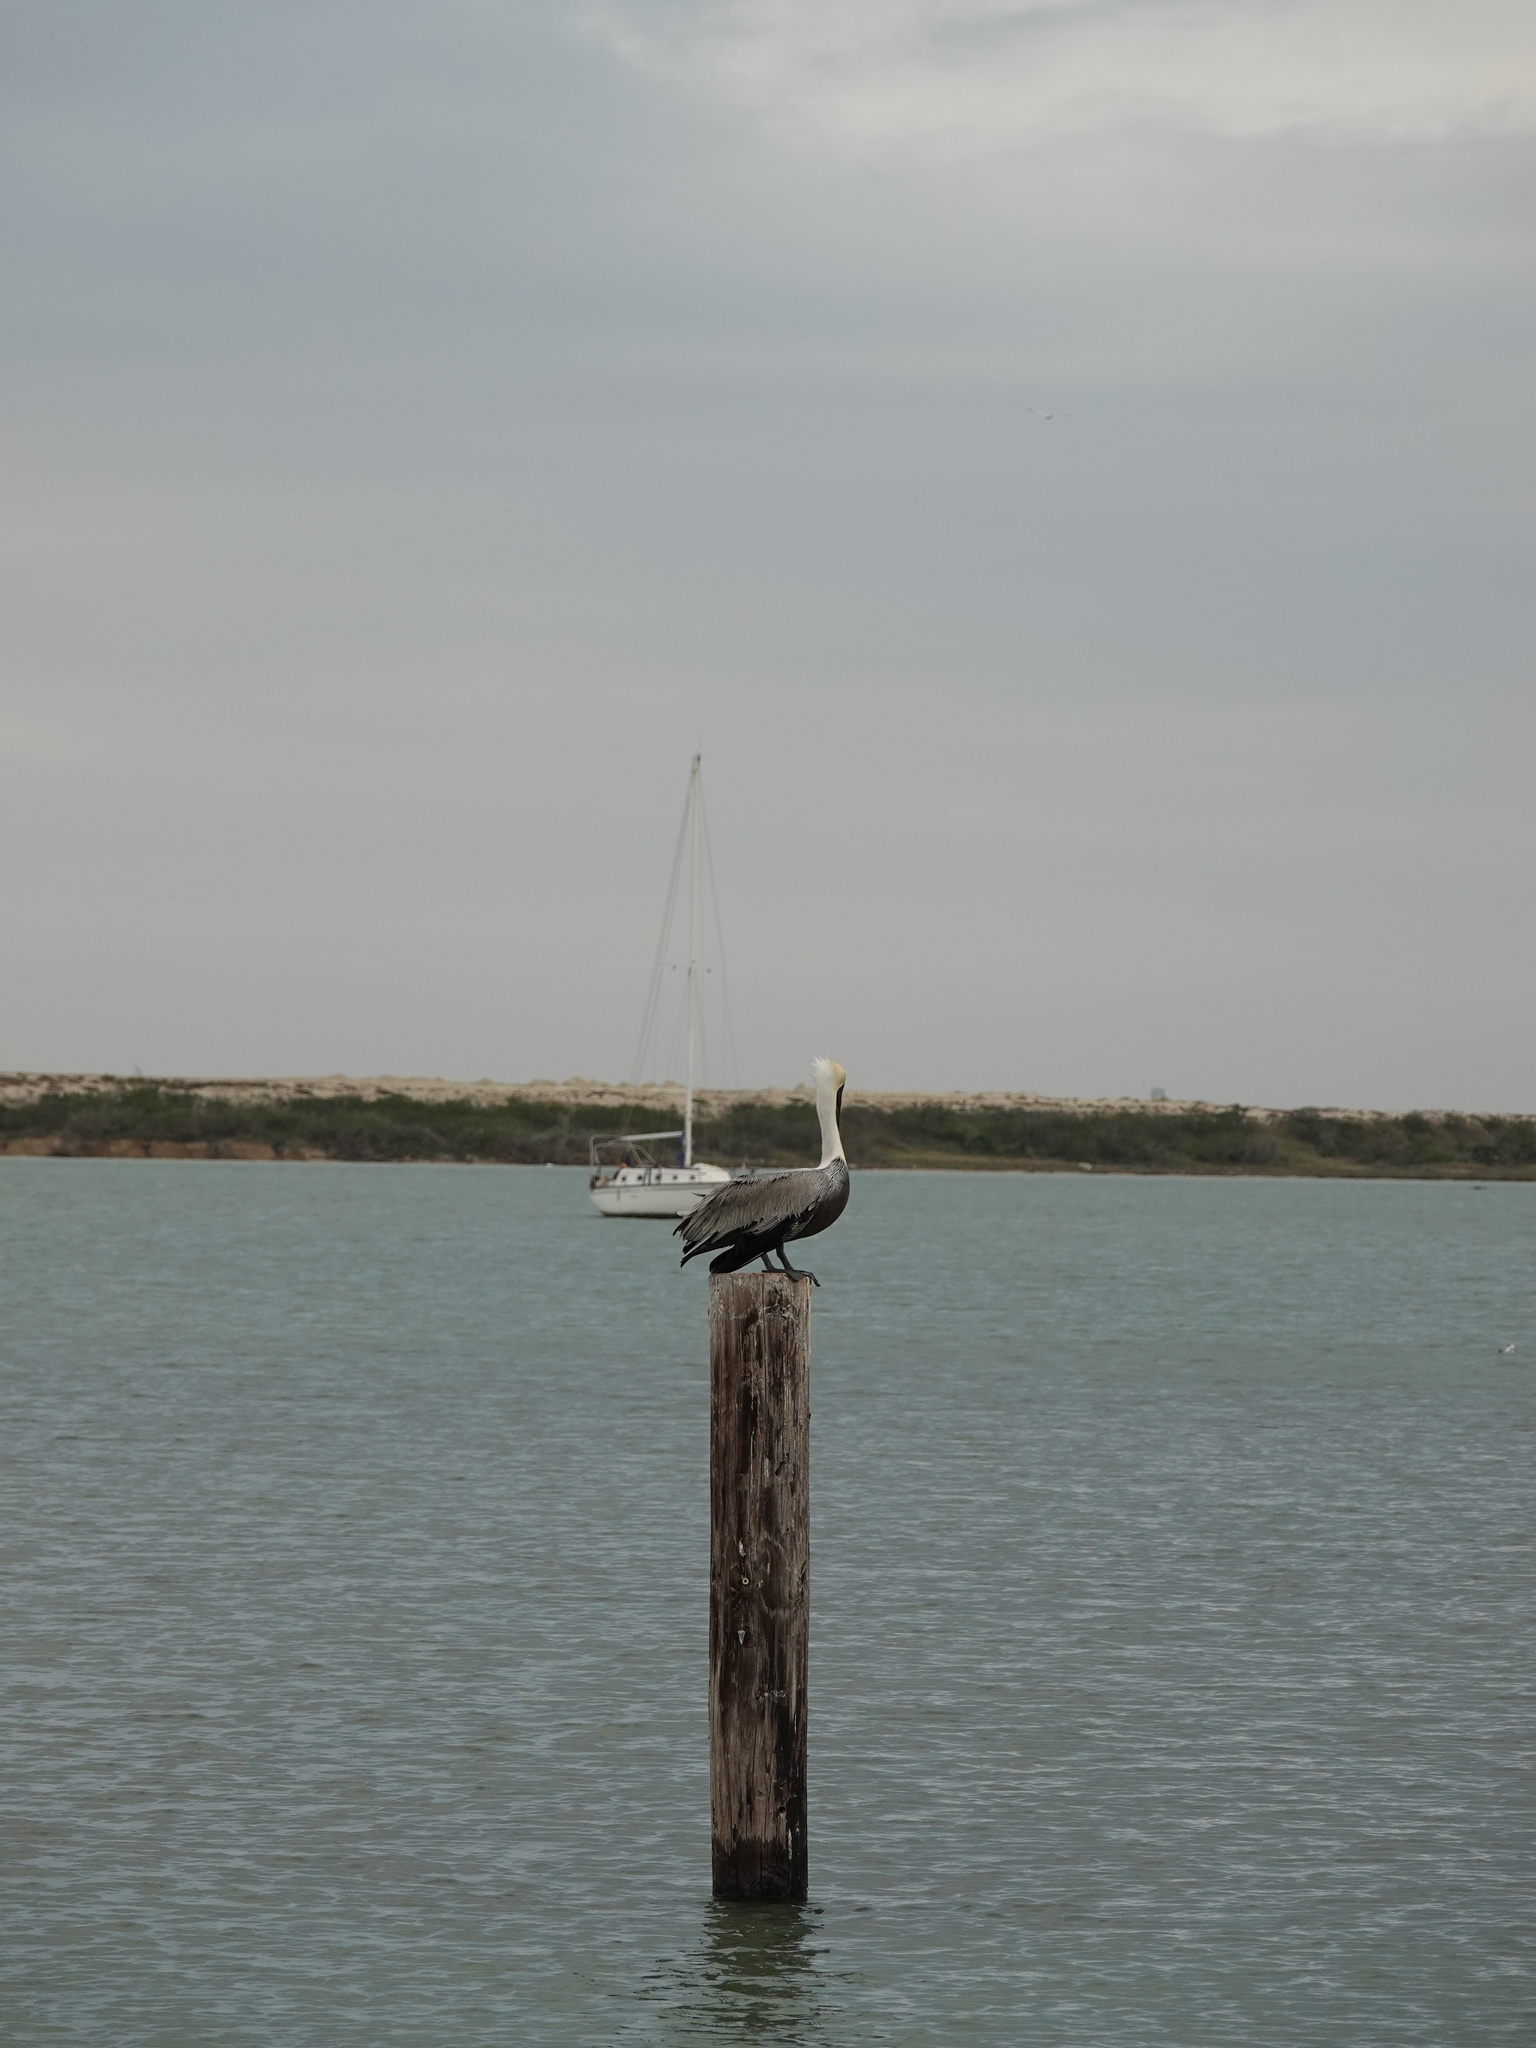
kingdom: Animalia
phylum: Chordata
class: Aves
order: Pelecaniformes
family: Pelecanidae
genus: Pelecanus
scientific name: Pelecanus occidentalis
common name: Brown pelican
